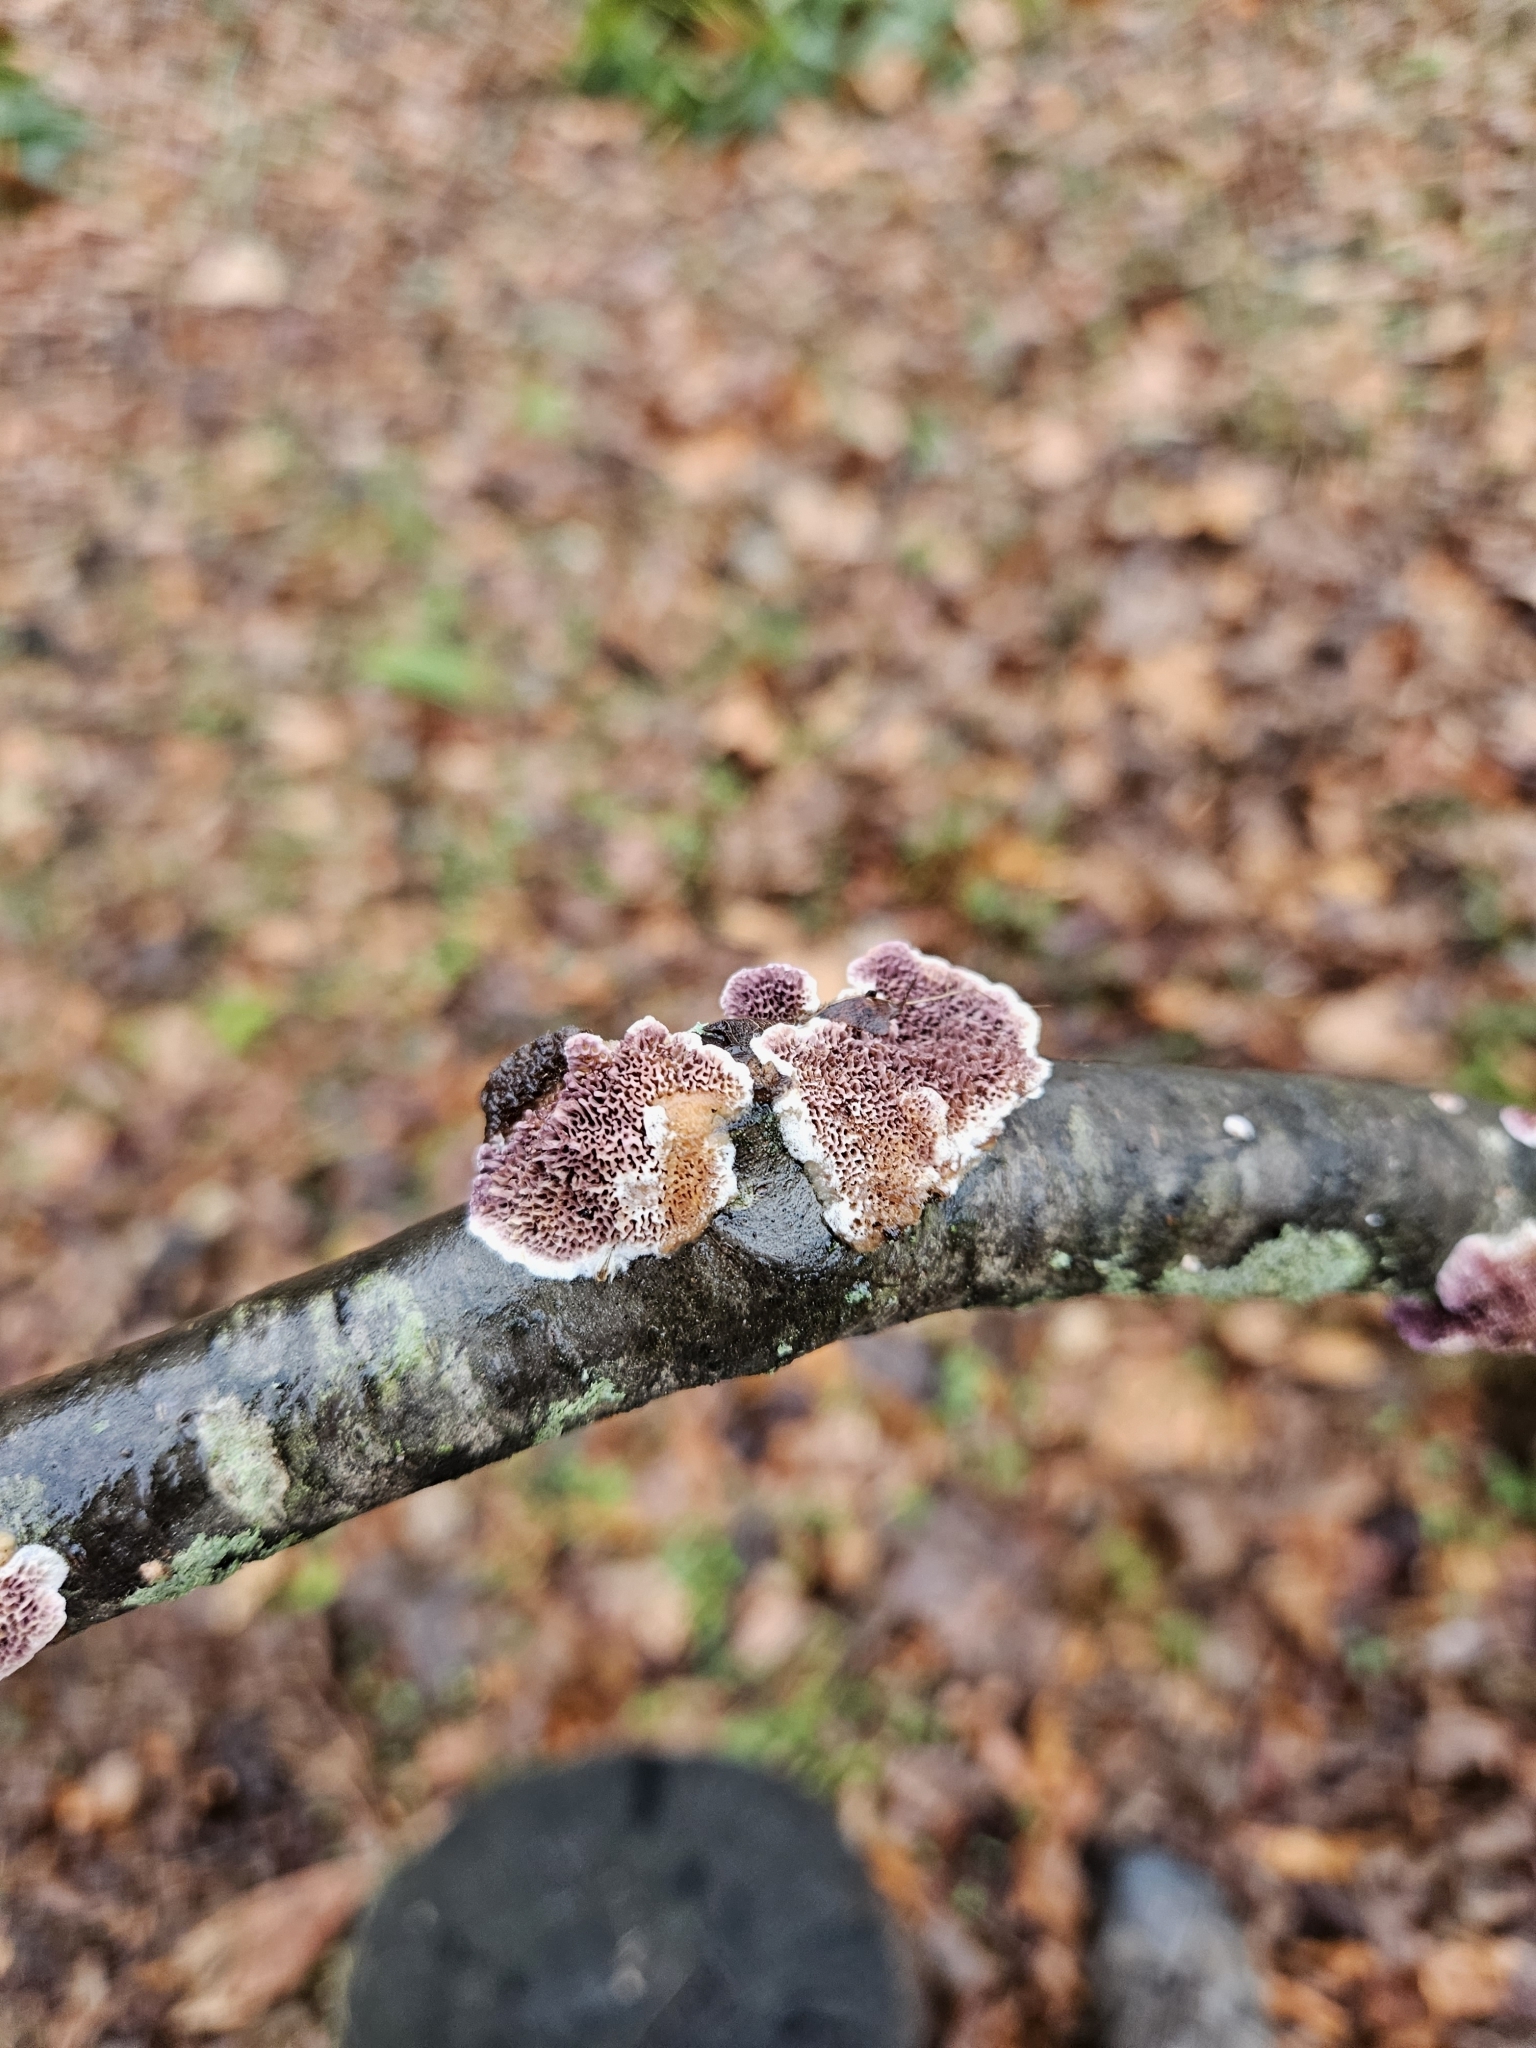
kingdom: Fungi
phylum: Basidiomycota
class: Agaricomycetes
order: Hymenochaetales
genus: Trichaptum
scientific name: Trichaptum biforme
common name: Violet-toothed polypore
